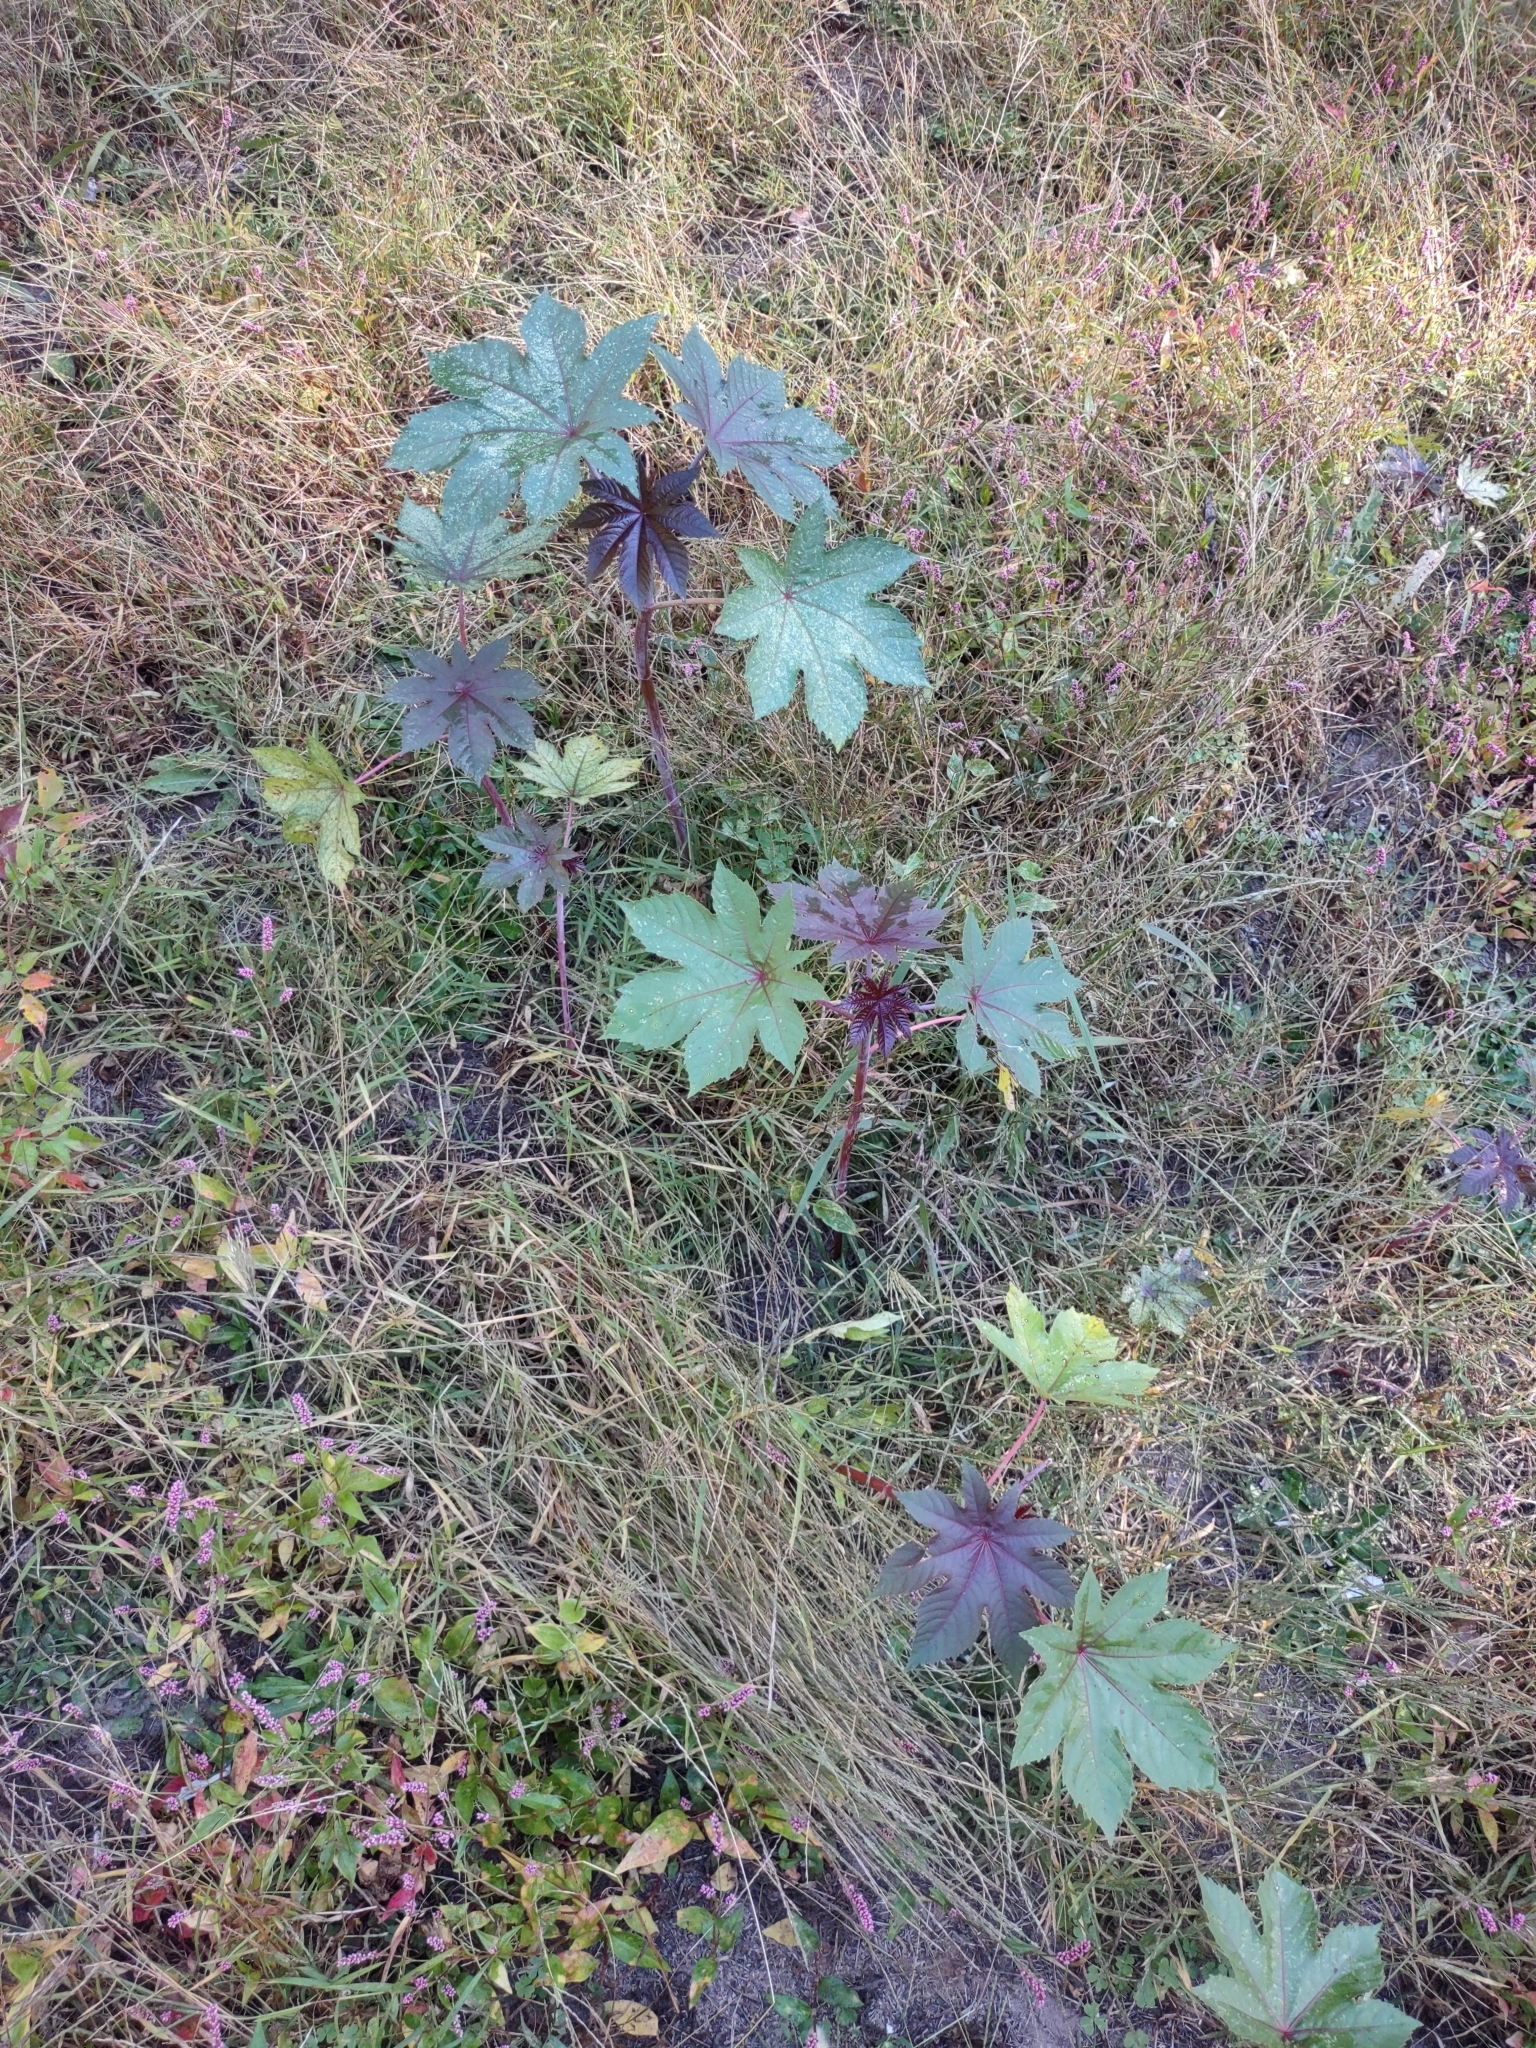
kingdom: Plantae
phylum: Tracheophyta
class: Magnoliopsida
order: Malpighiales
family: Euphorbiaceae
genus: Ricinus
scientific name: Ricinus communis
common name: Castor-oil-plant
